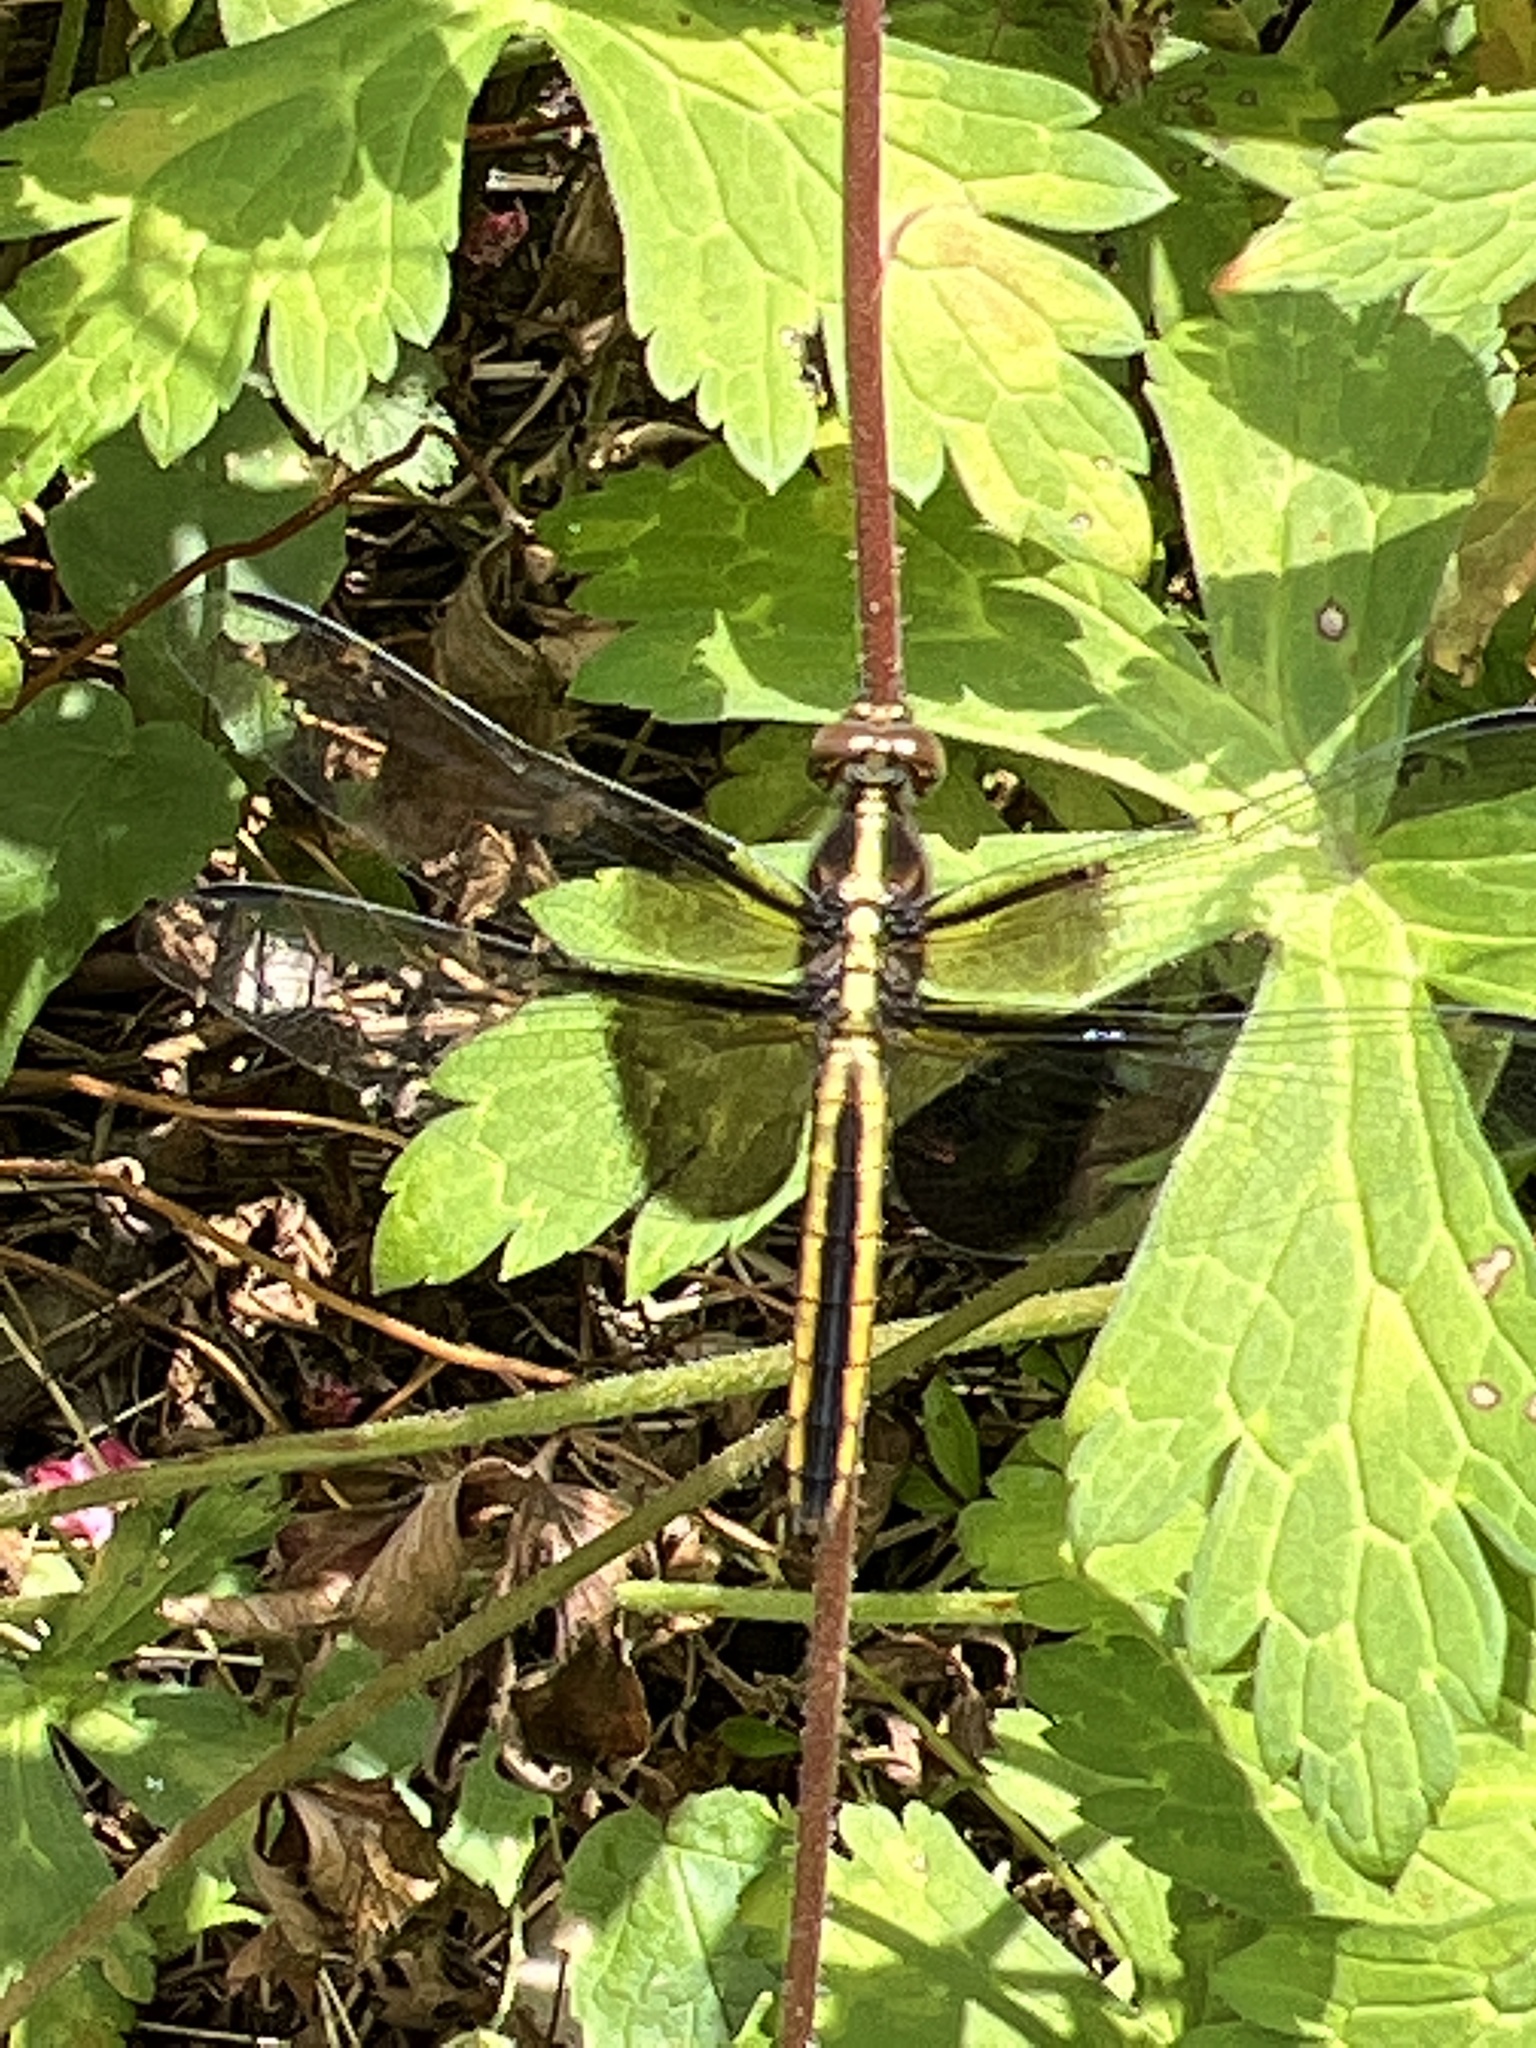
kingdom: Animalia
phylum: Arthropoda
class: Insecta
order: Odonata
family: Libellulidae
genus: Libellula
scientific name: Libellula luctuosa
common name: Widow skimmer
